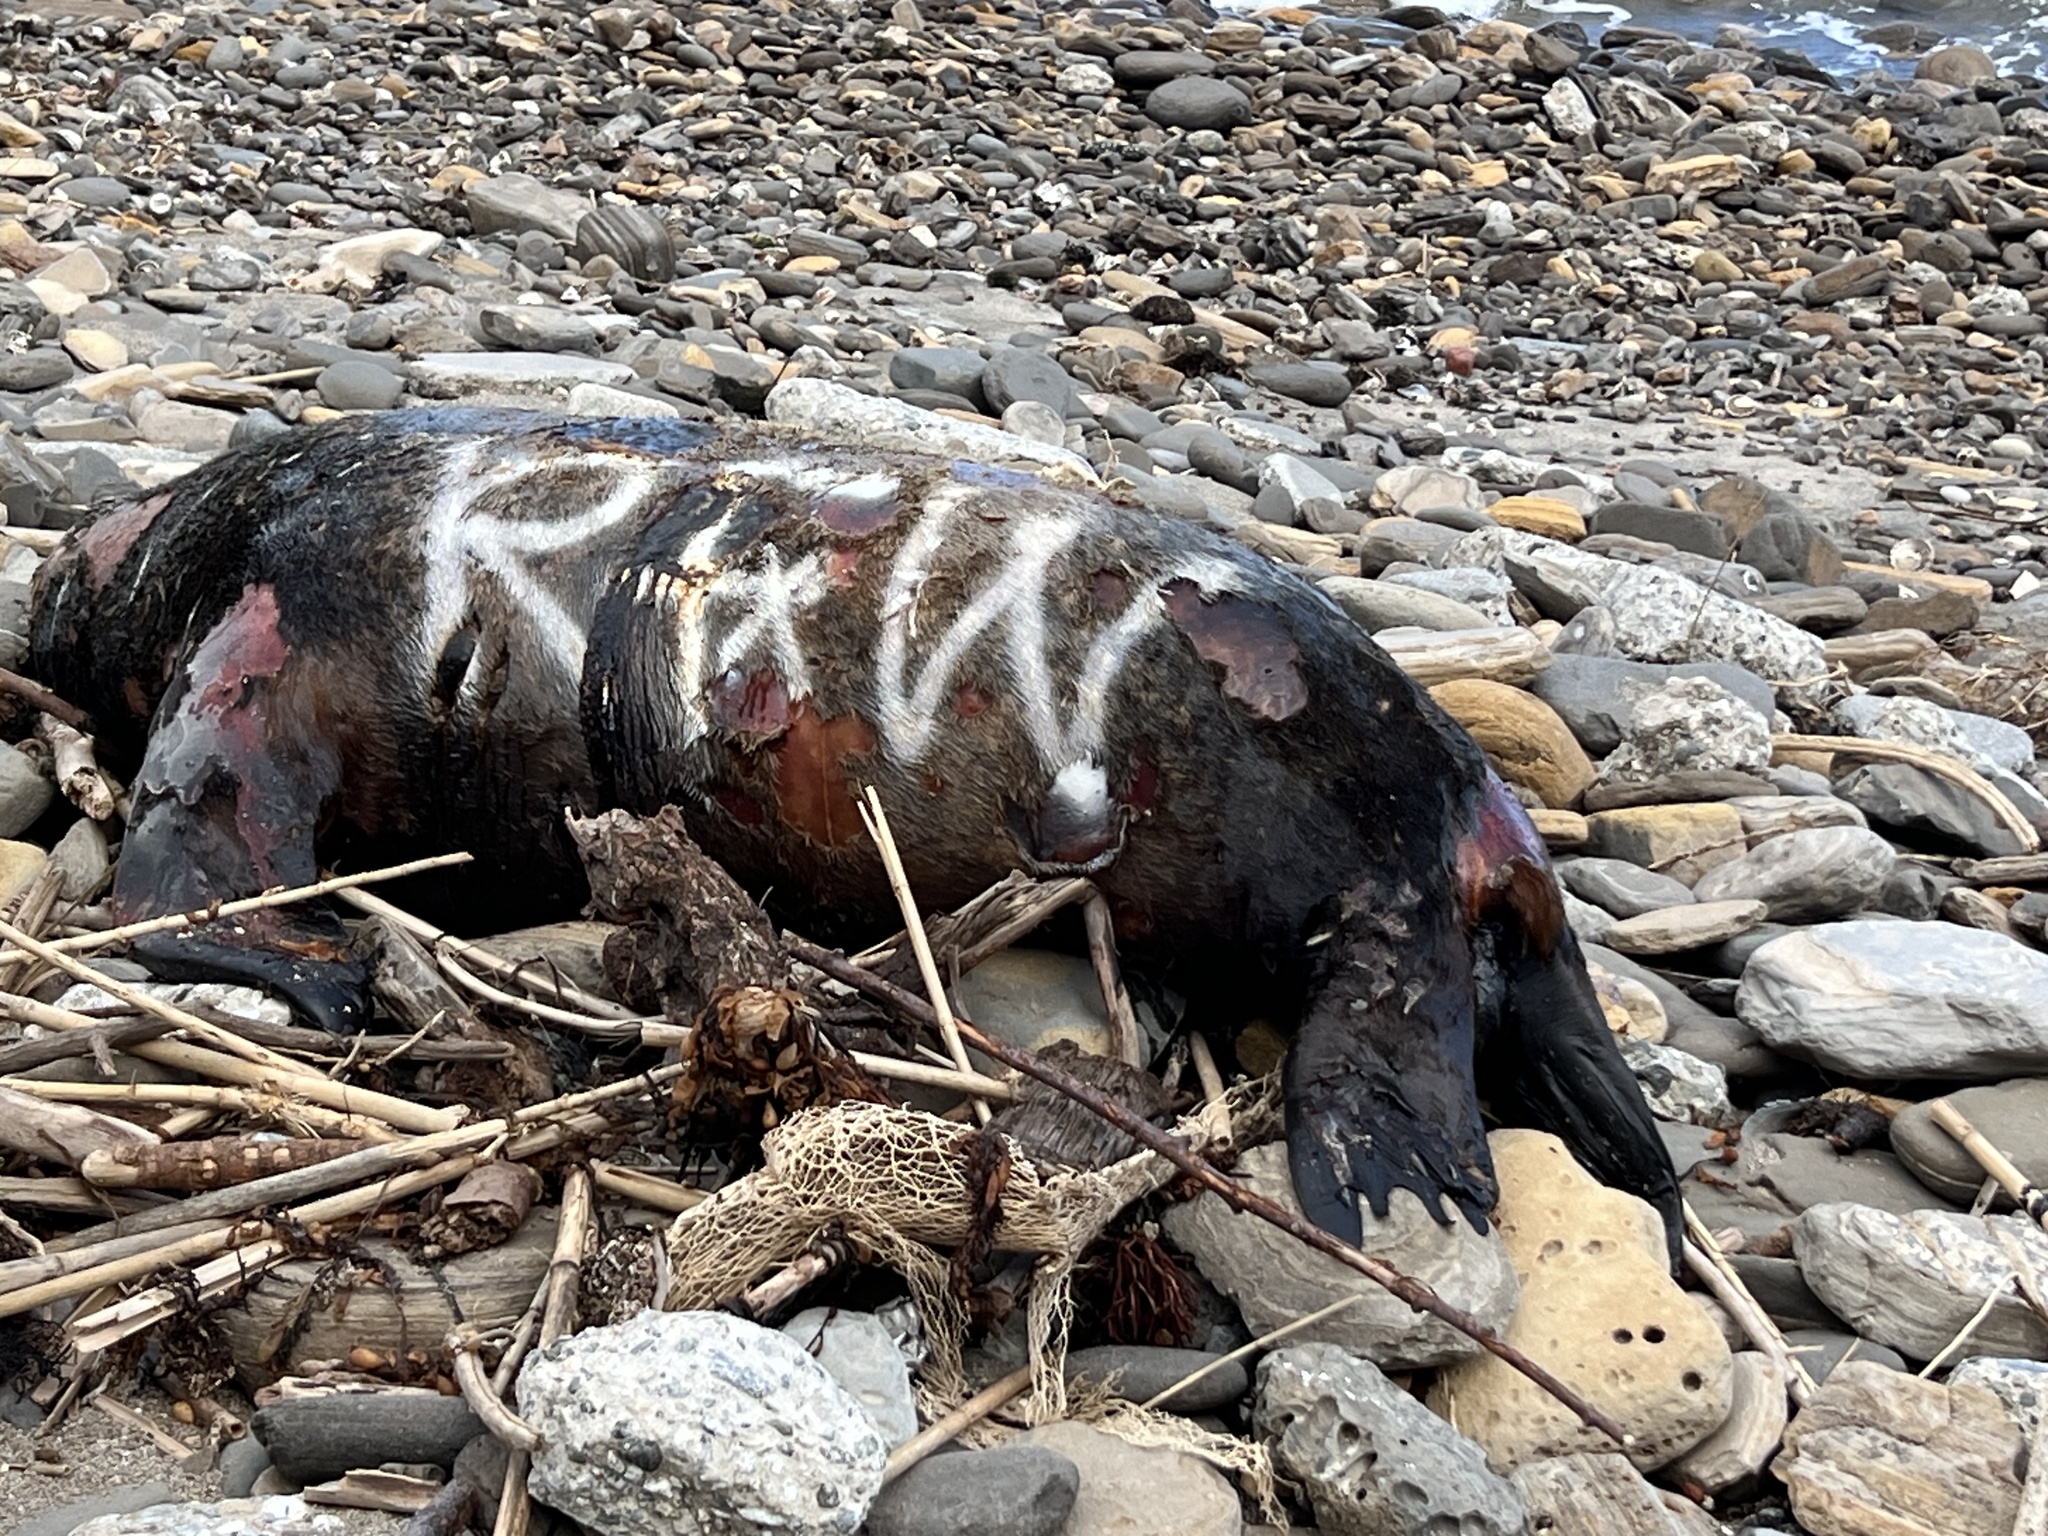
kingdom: Animalia
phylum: Chordata
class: Mammalia
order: Carnivora
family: Otariidae
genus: Zalophus
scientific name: Zalophus californianus
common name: California sea lion
